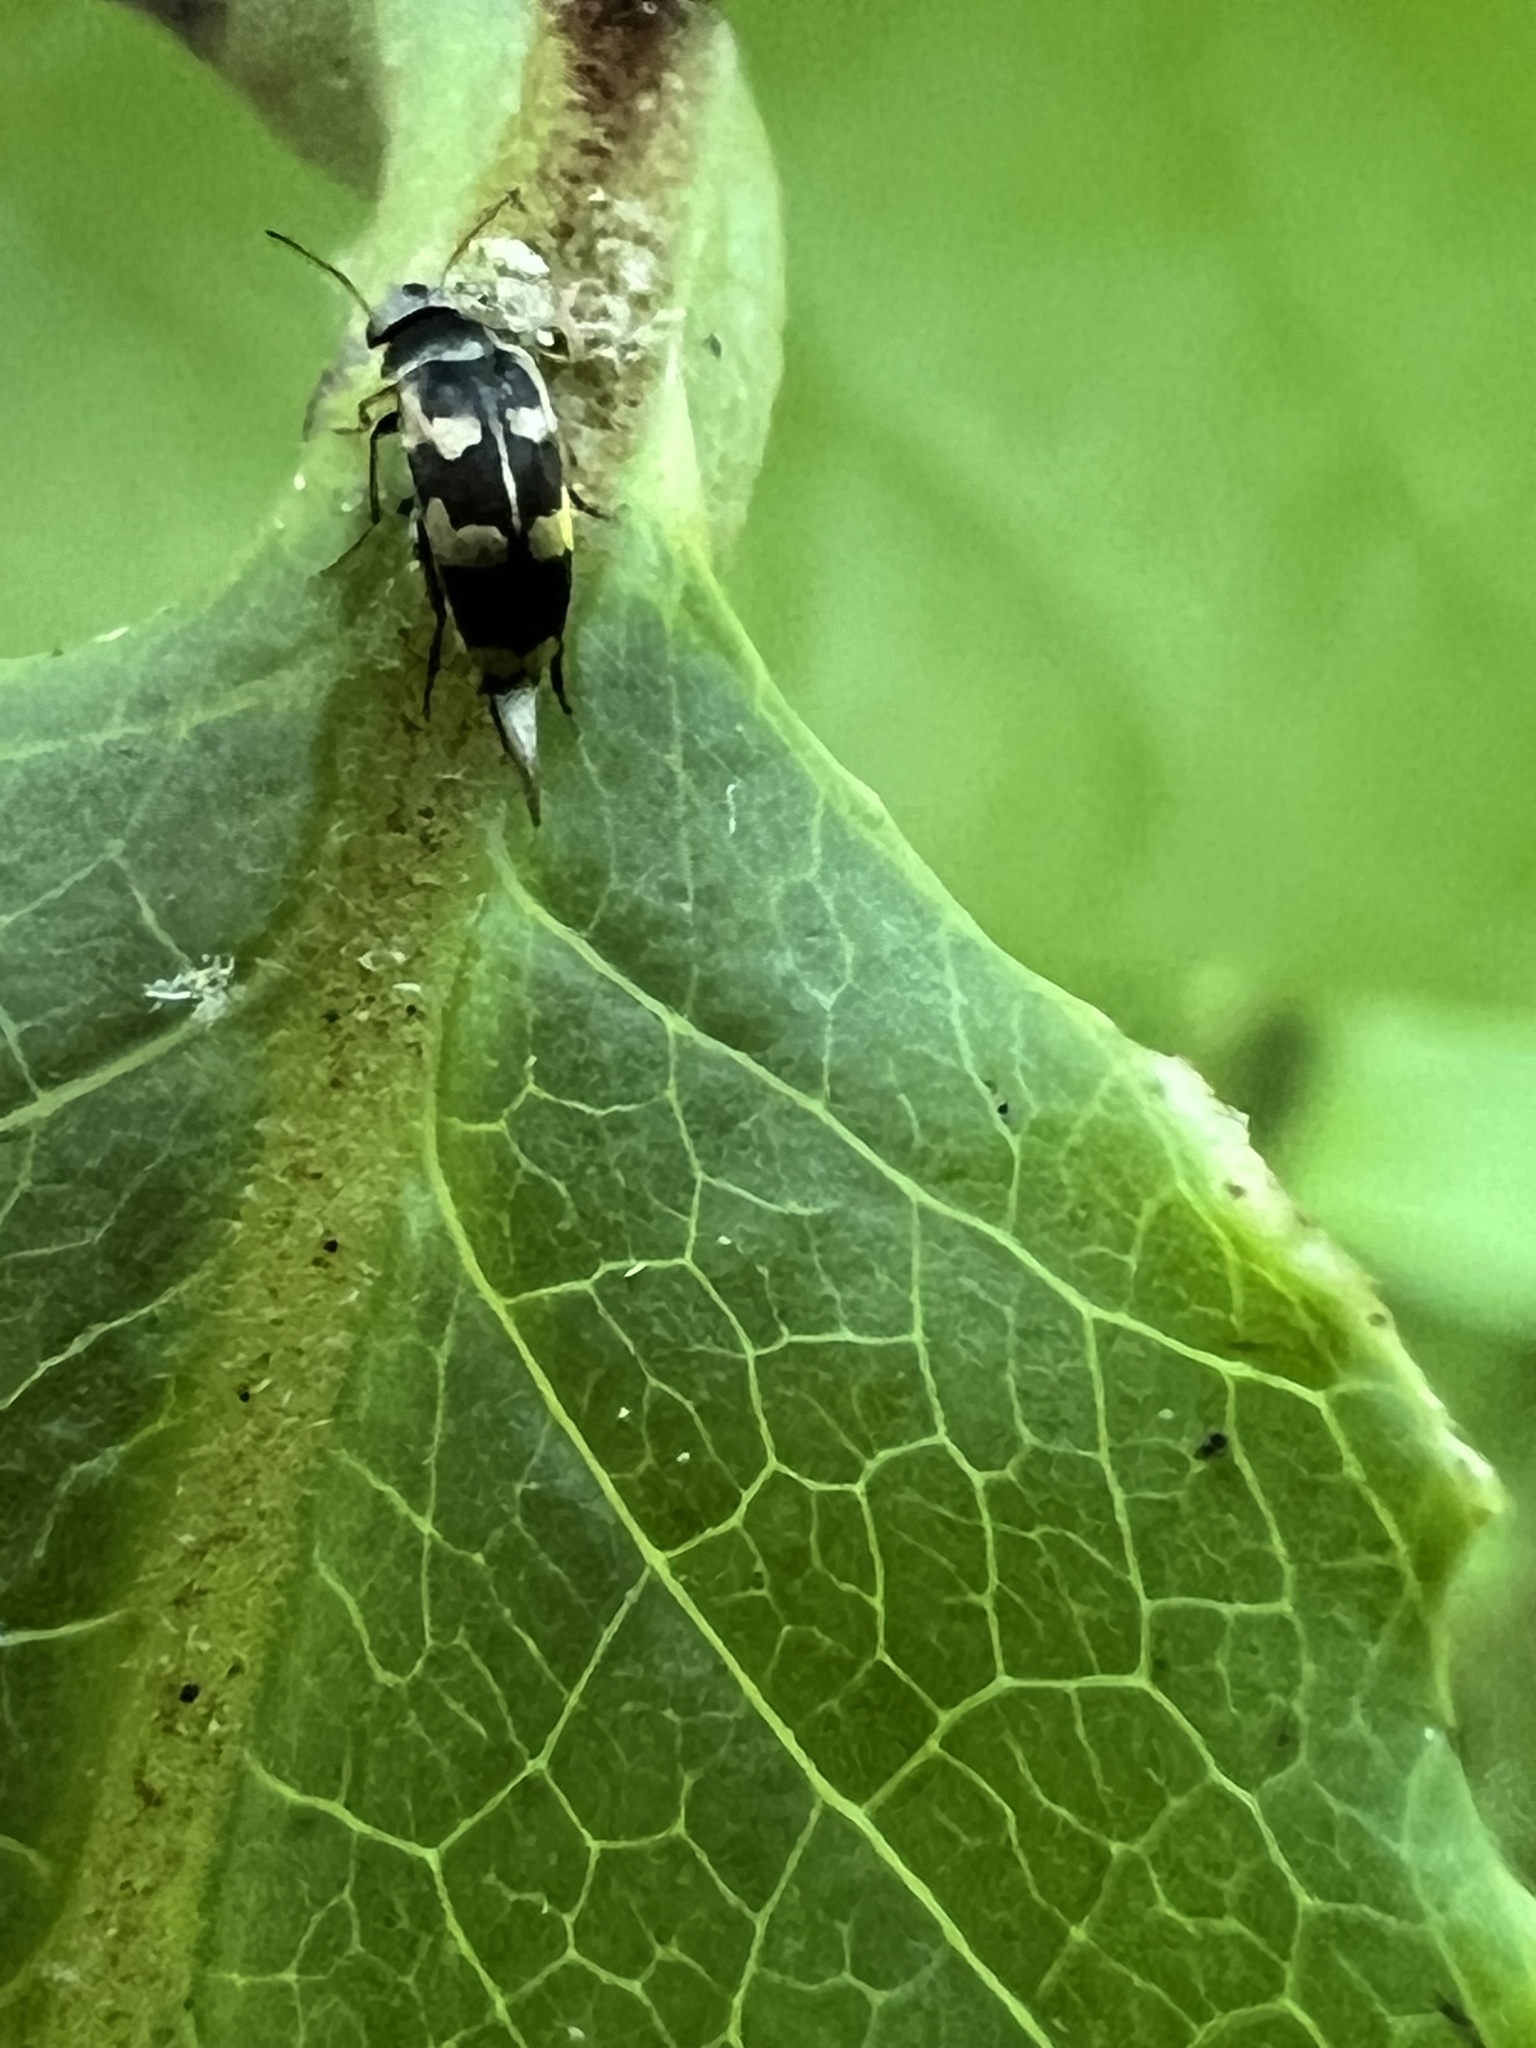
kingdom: Animalia
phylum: Arthropoda
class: Insecta
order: Coleoptera
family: Mordellidae
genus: Falsomordellistena
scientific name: Falsomordellistena pubescens
